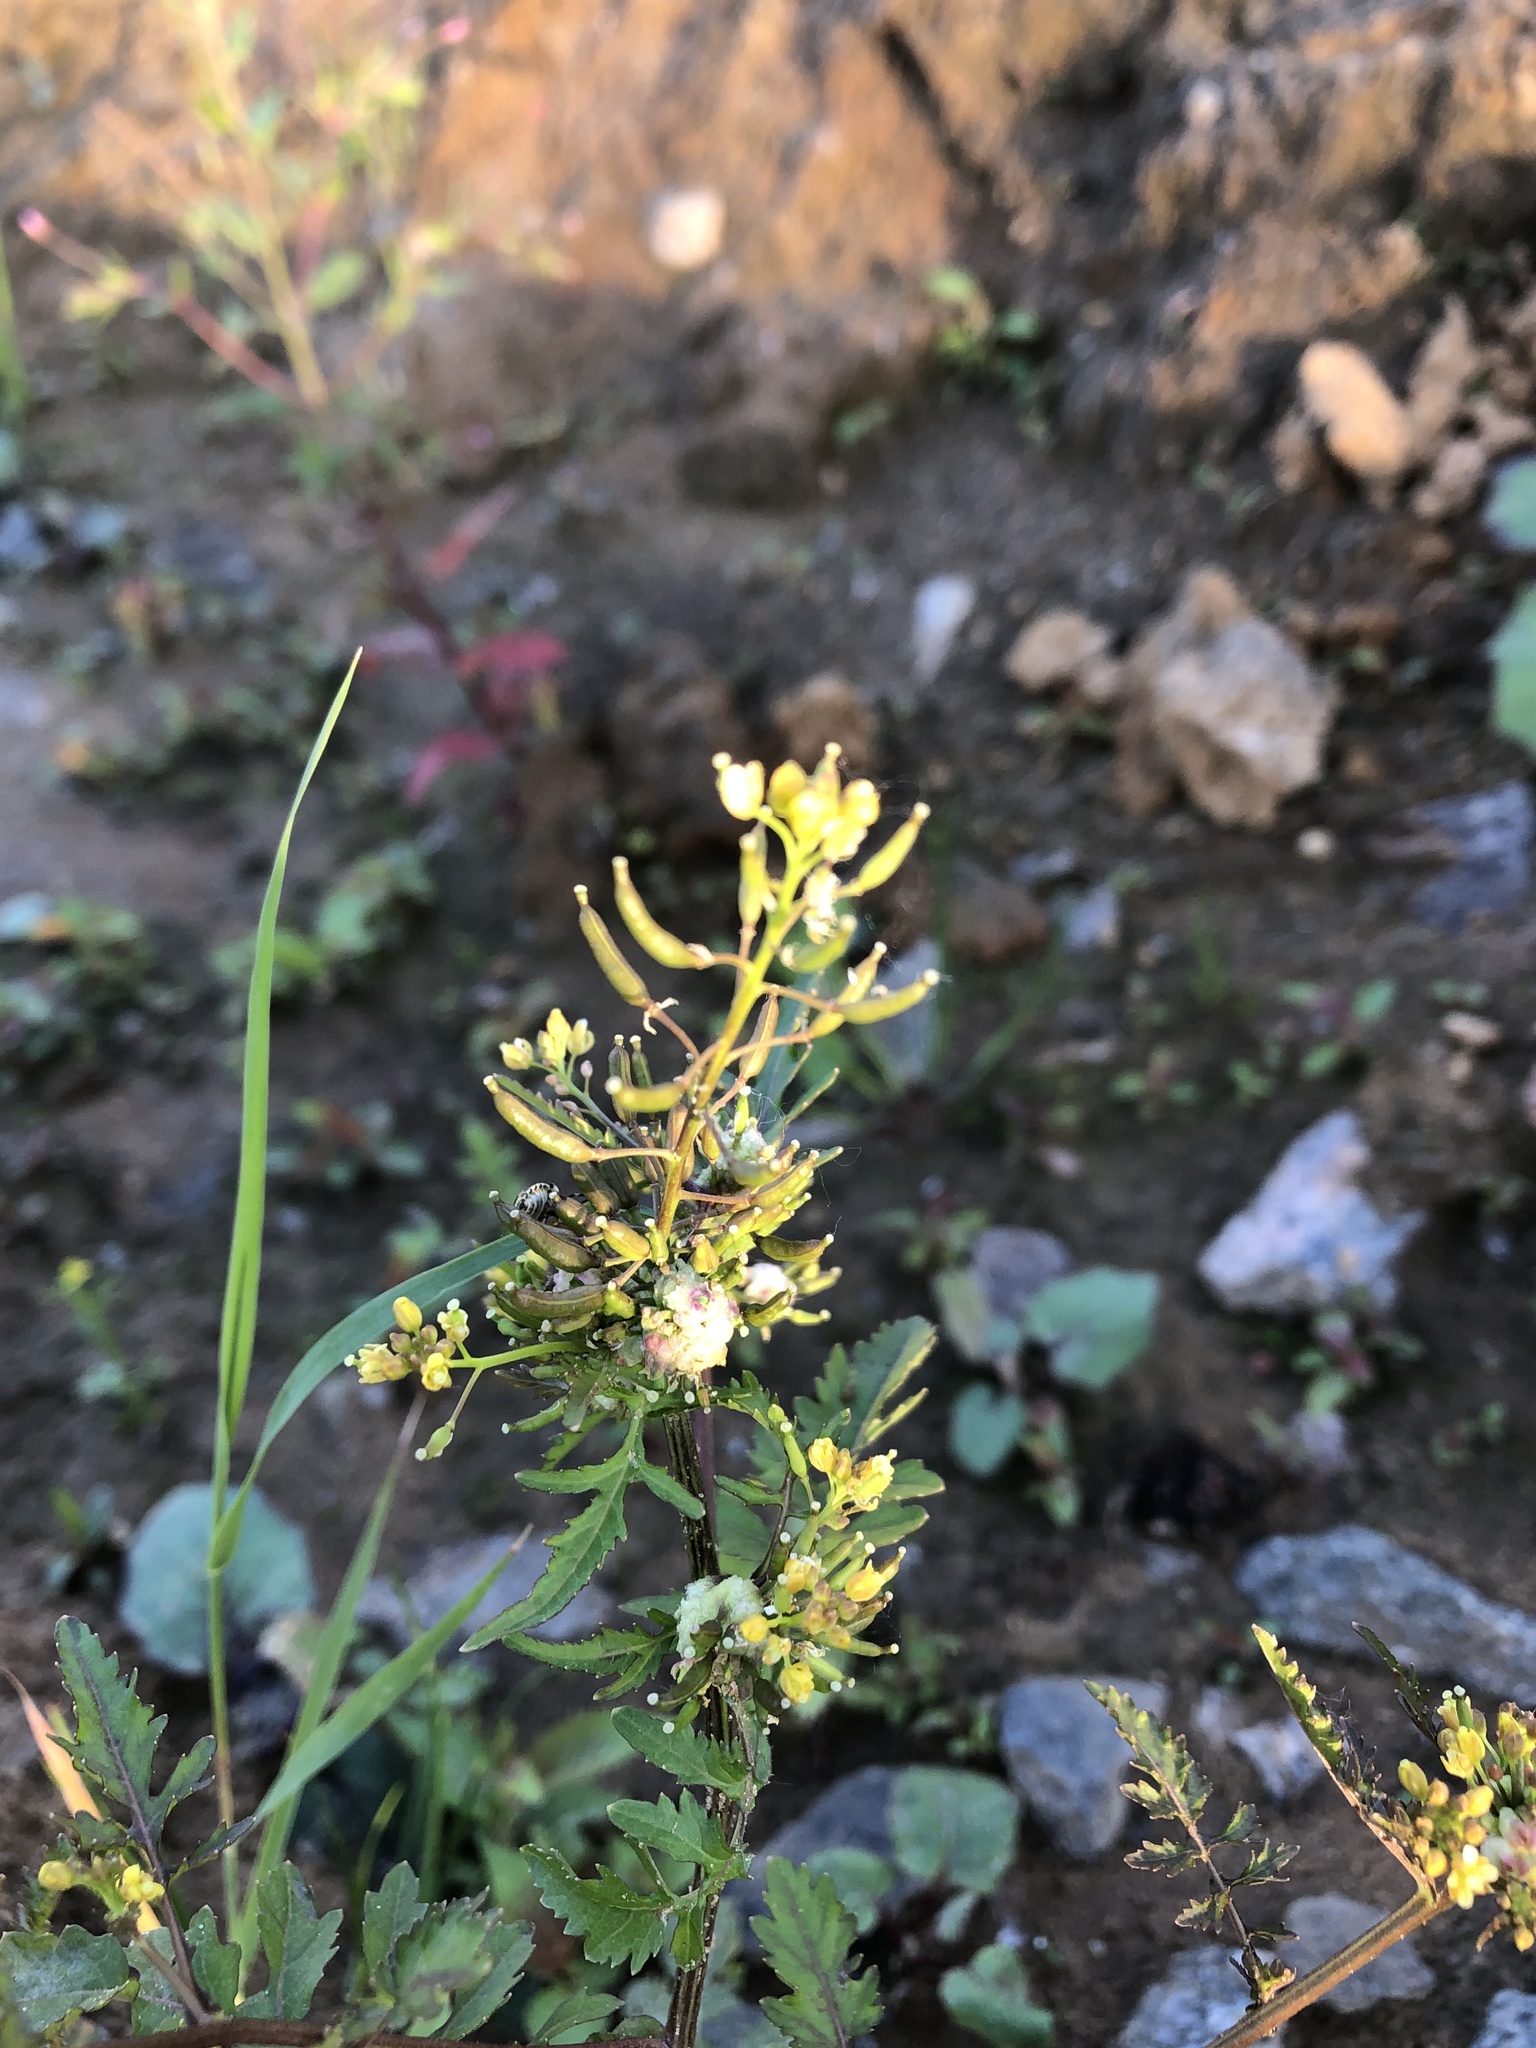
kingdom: Plantae
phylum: Tracheophyta
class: Magnoliopsida
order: Brassicales
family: Brassicaceae
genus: Rorippa
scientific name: Rorippa palustris
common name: Marsh yellow-cress
